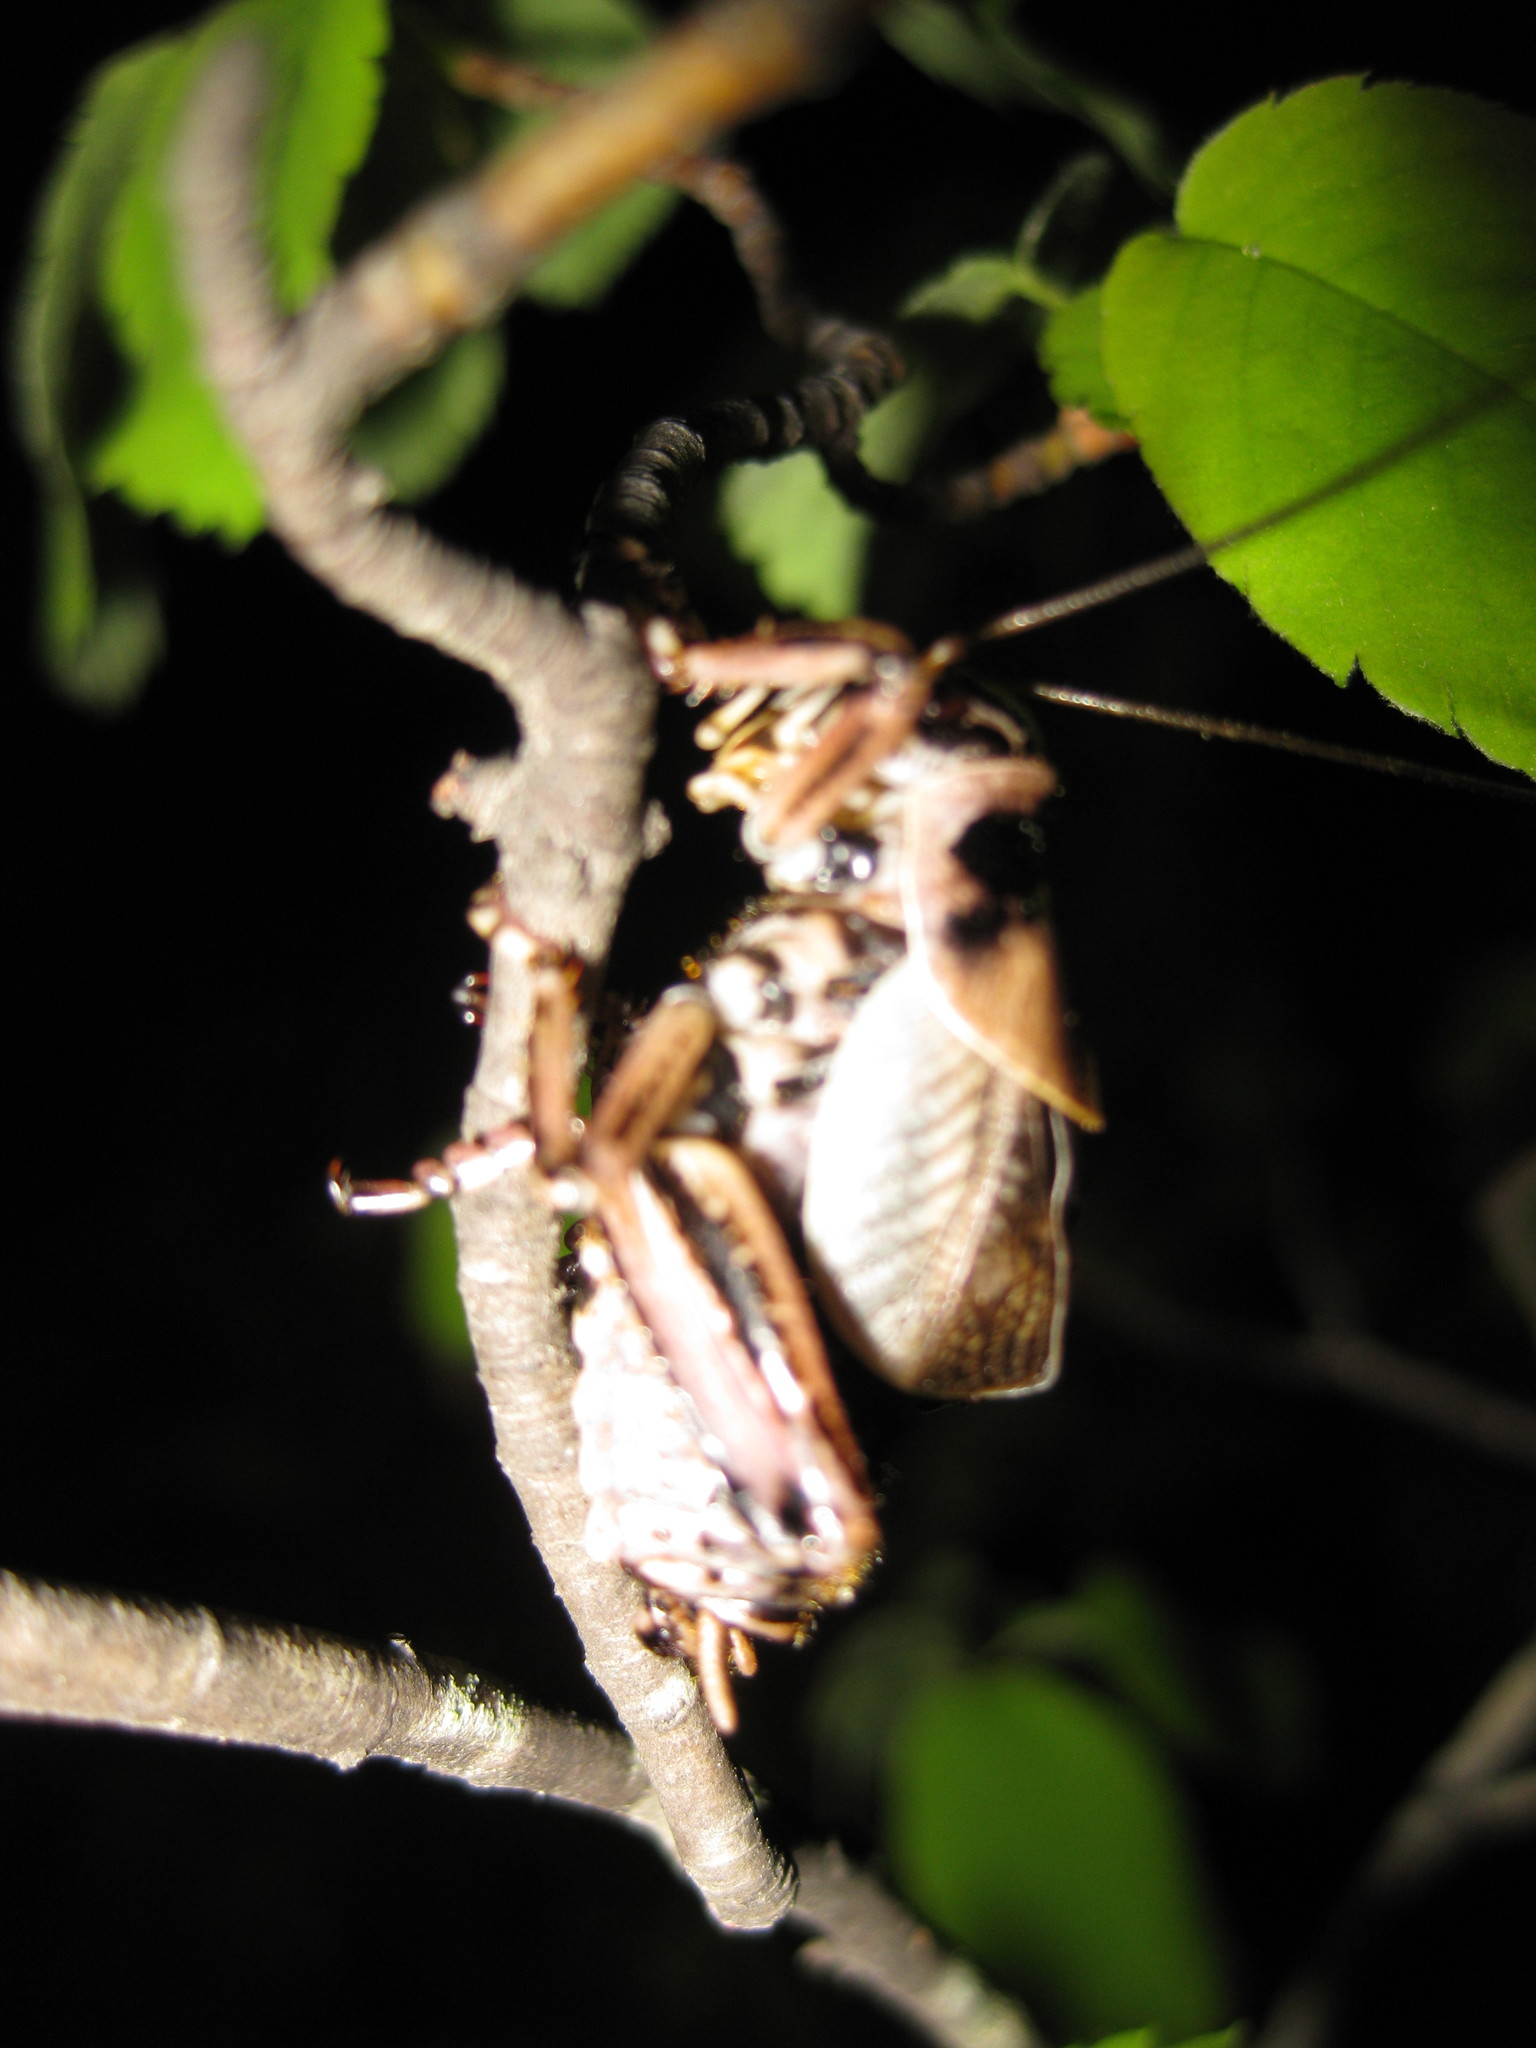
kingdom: Animalia
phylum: Arthropoda
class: Insecta
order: Orthoptera
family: Prophalangopsidae
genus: Cyphoderris
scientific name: Cyphoderris buckelli
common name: Buckell’s grig
